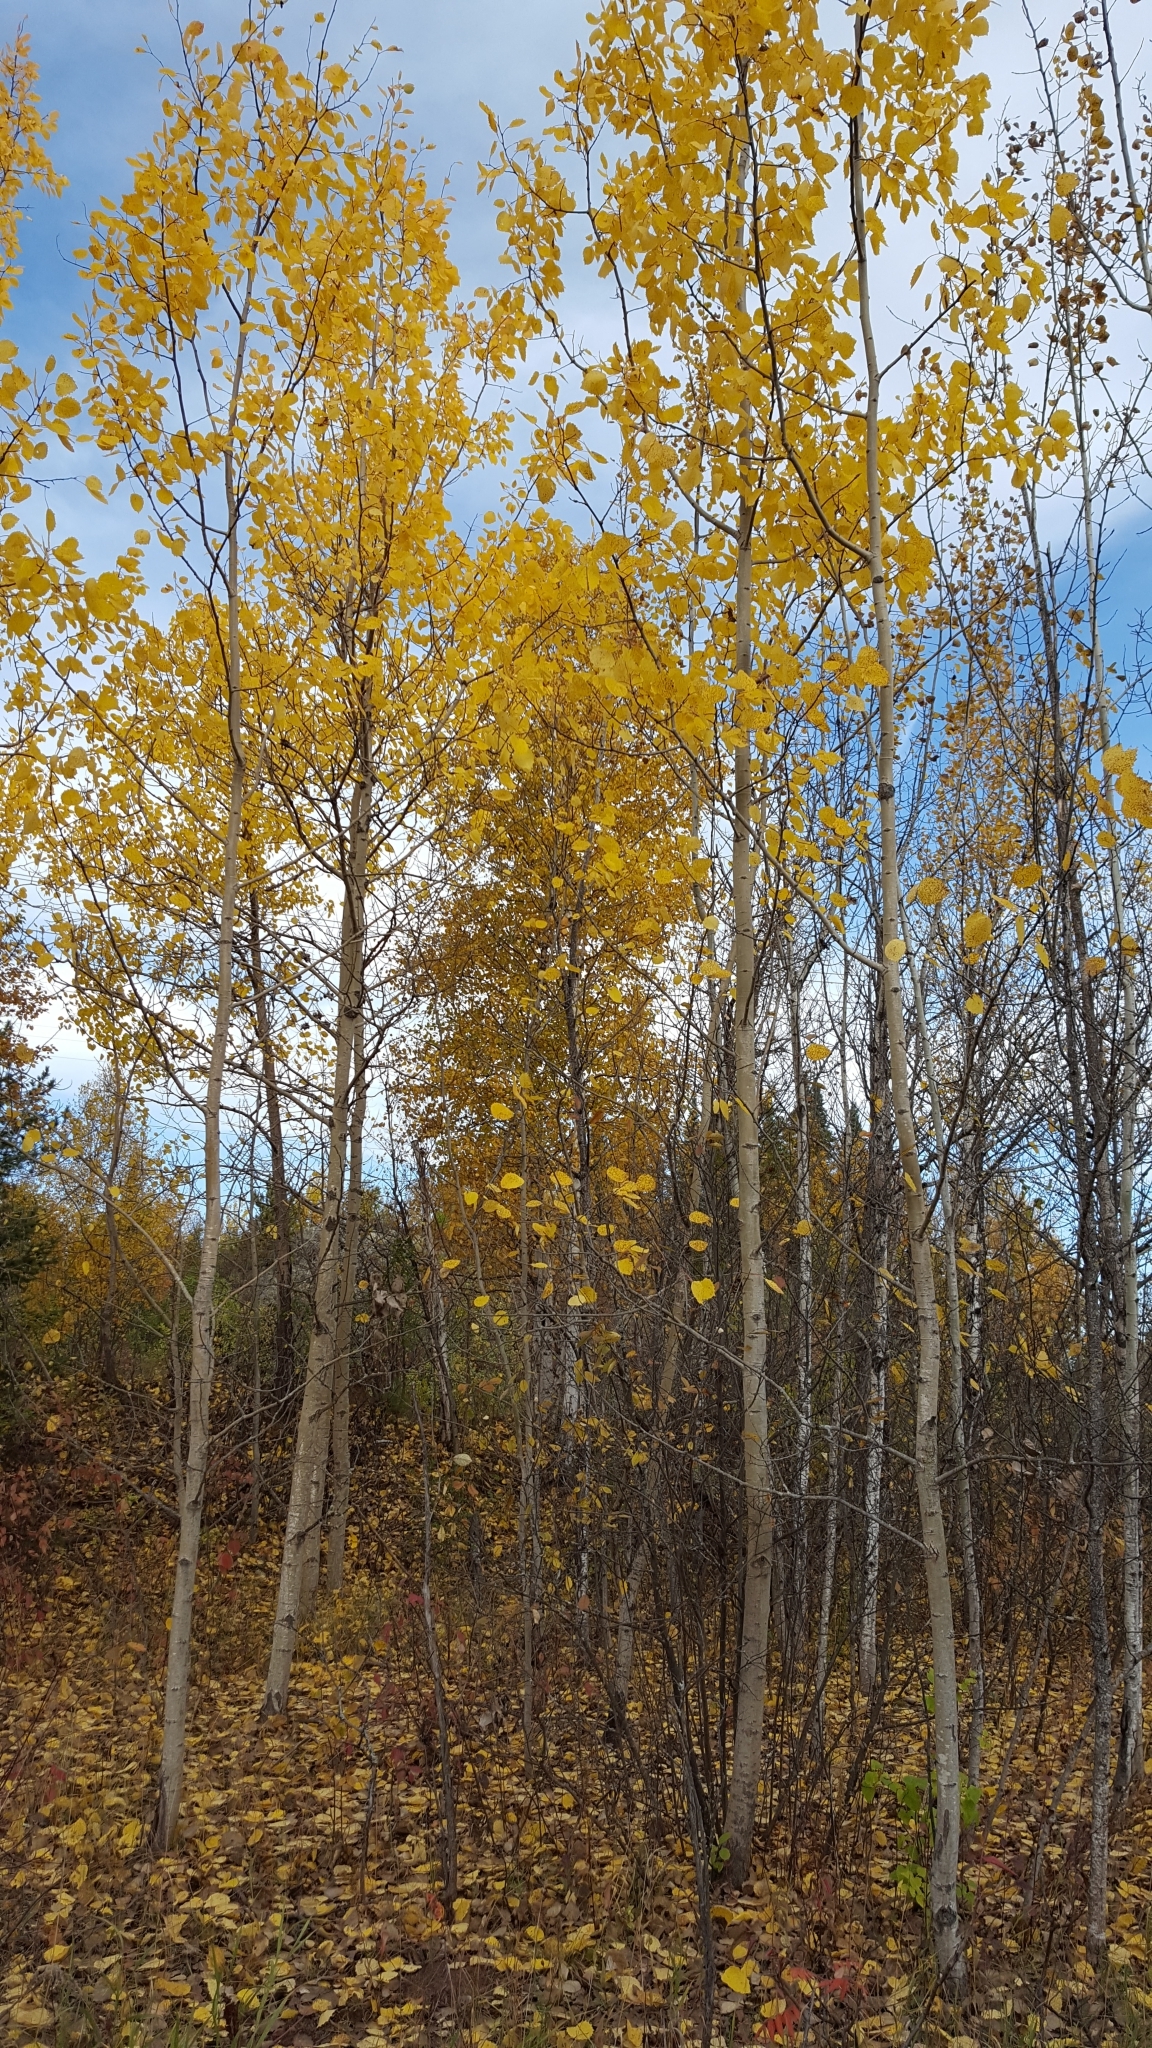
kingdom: Plantae
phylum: Tracheophyta
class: Magnoliopsida
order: Malpighiales
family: Salicaceae
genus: Populus
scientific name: Populus grandidentata
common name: Bigtooth aspen
